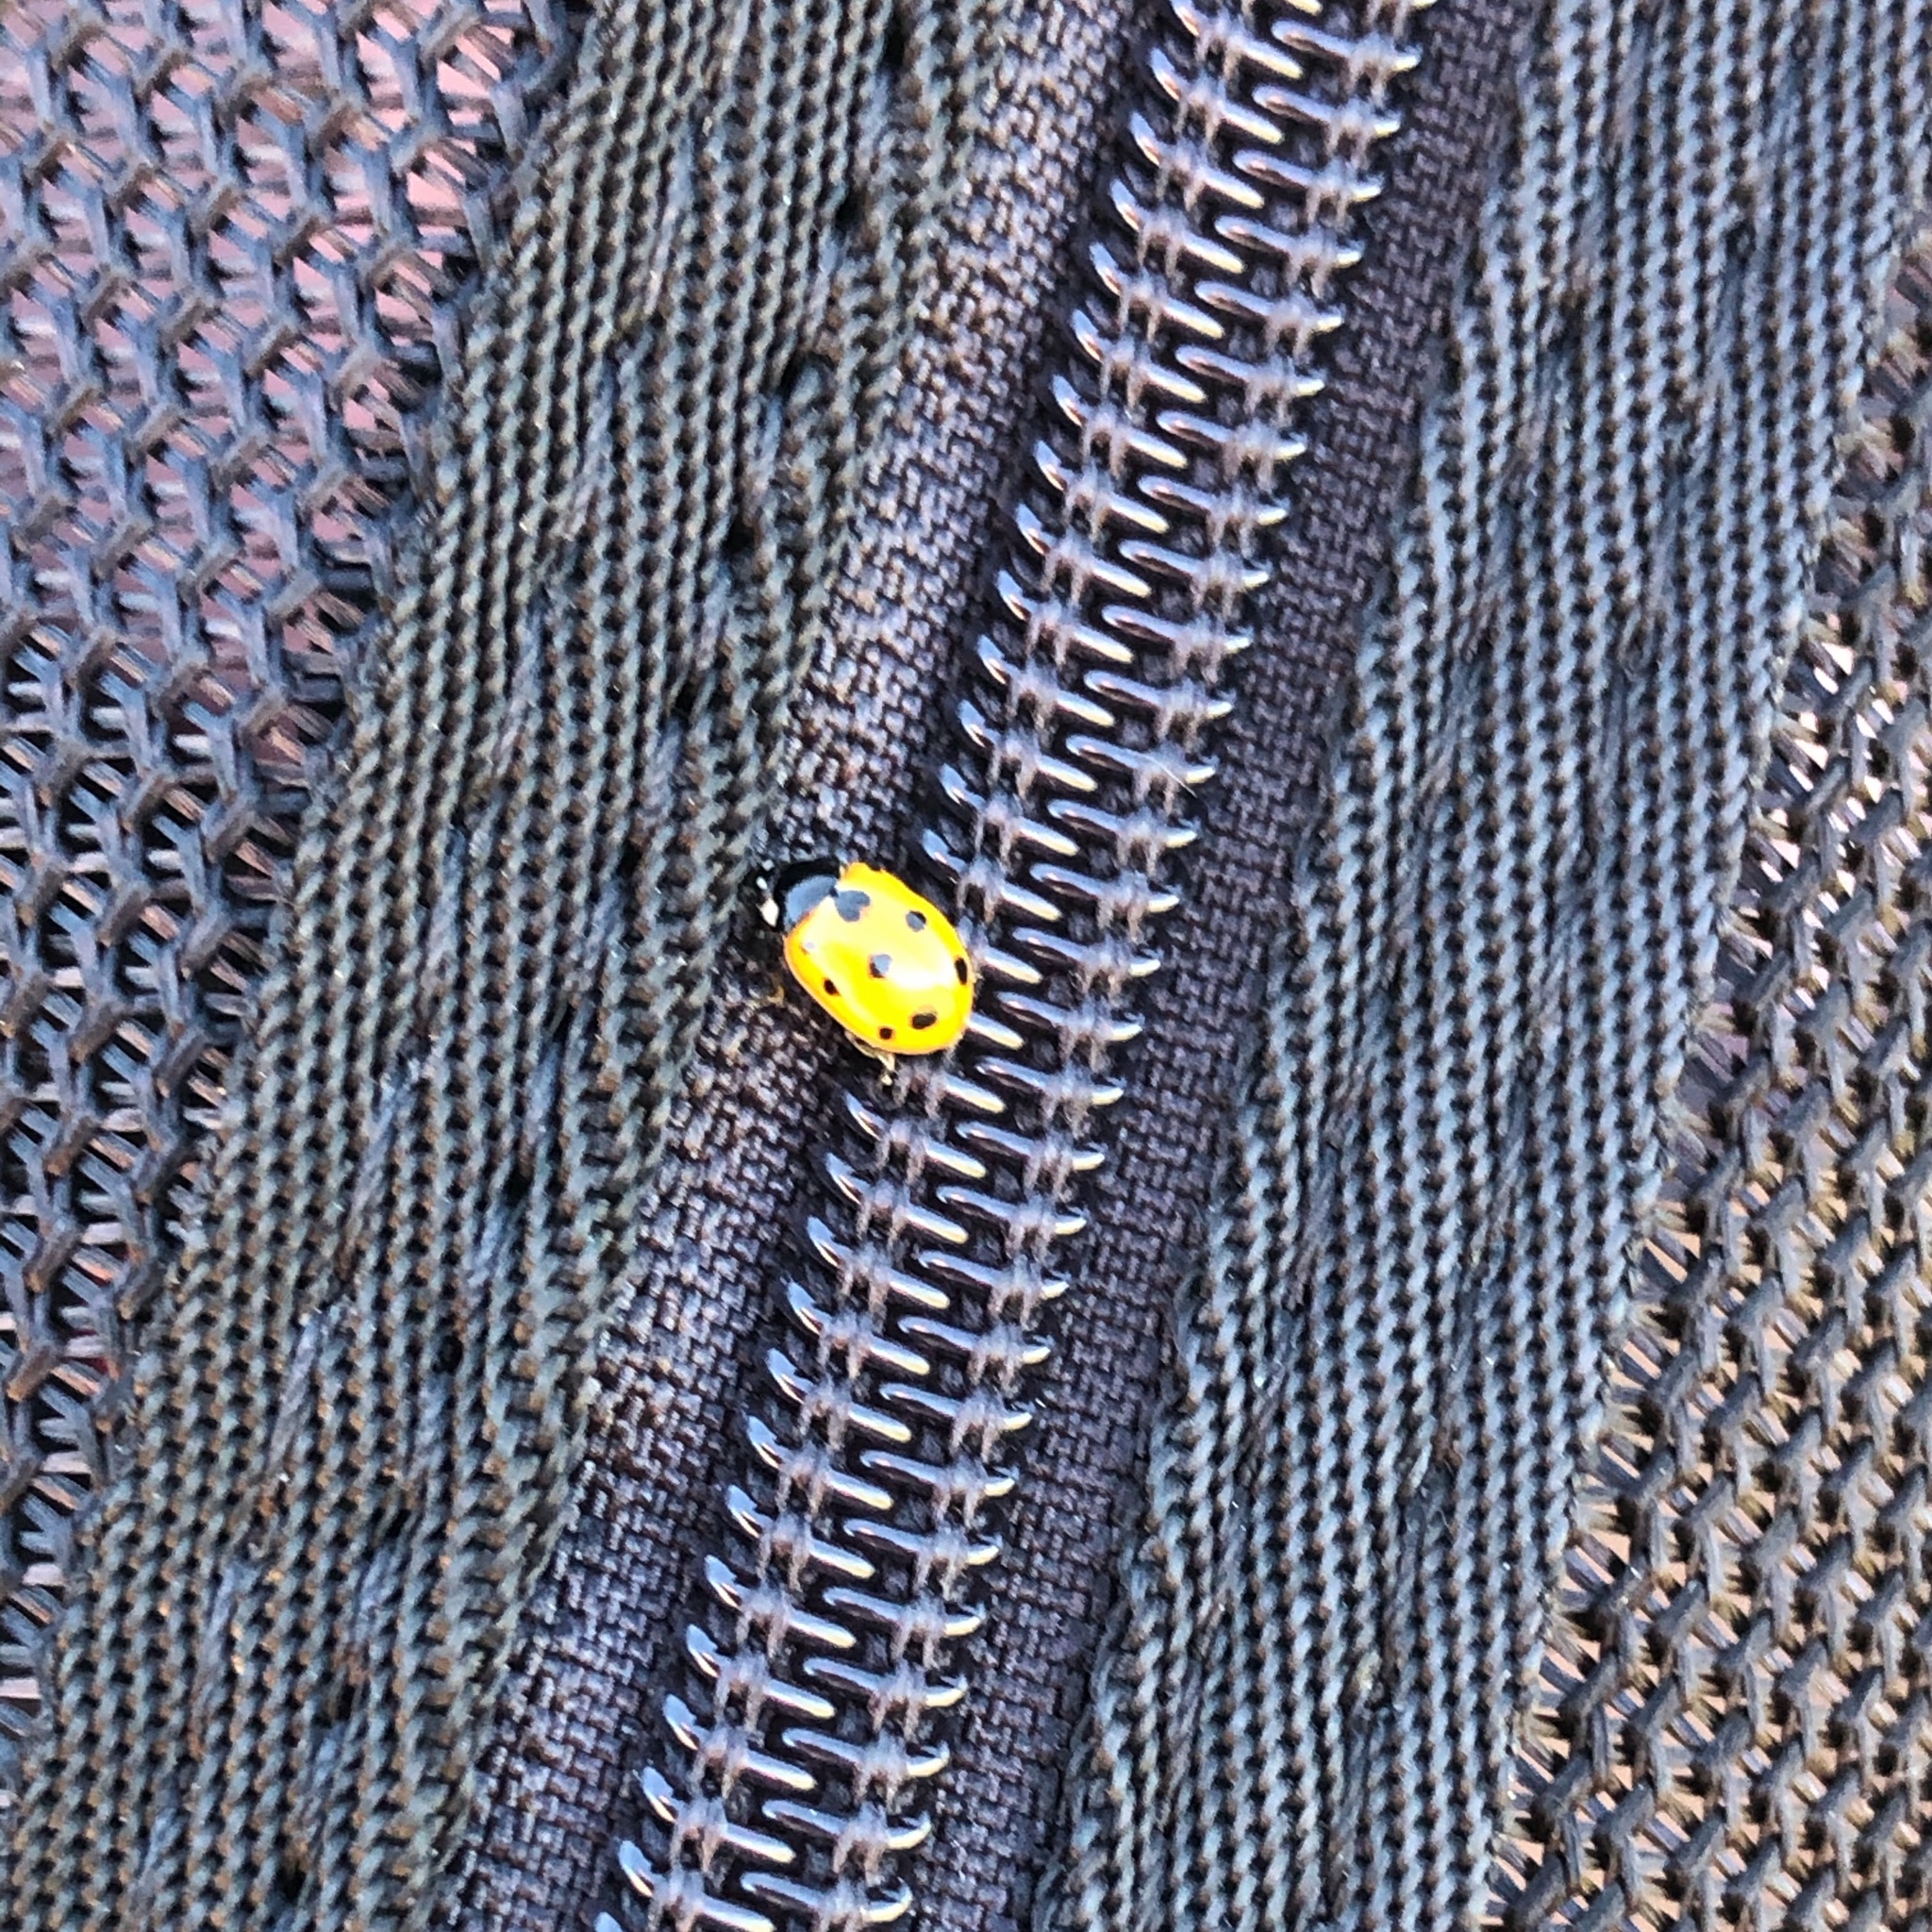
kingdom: Animalia
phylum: Arthropoda
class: Insecta
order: Coleoptera
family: Coccinellidae
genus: Coccinella
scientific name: Coccinella undecimpunctata
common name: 11-spot ladybird
